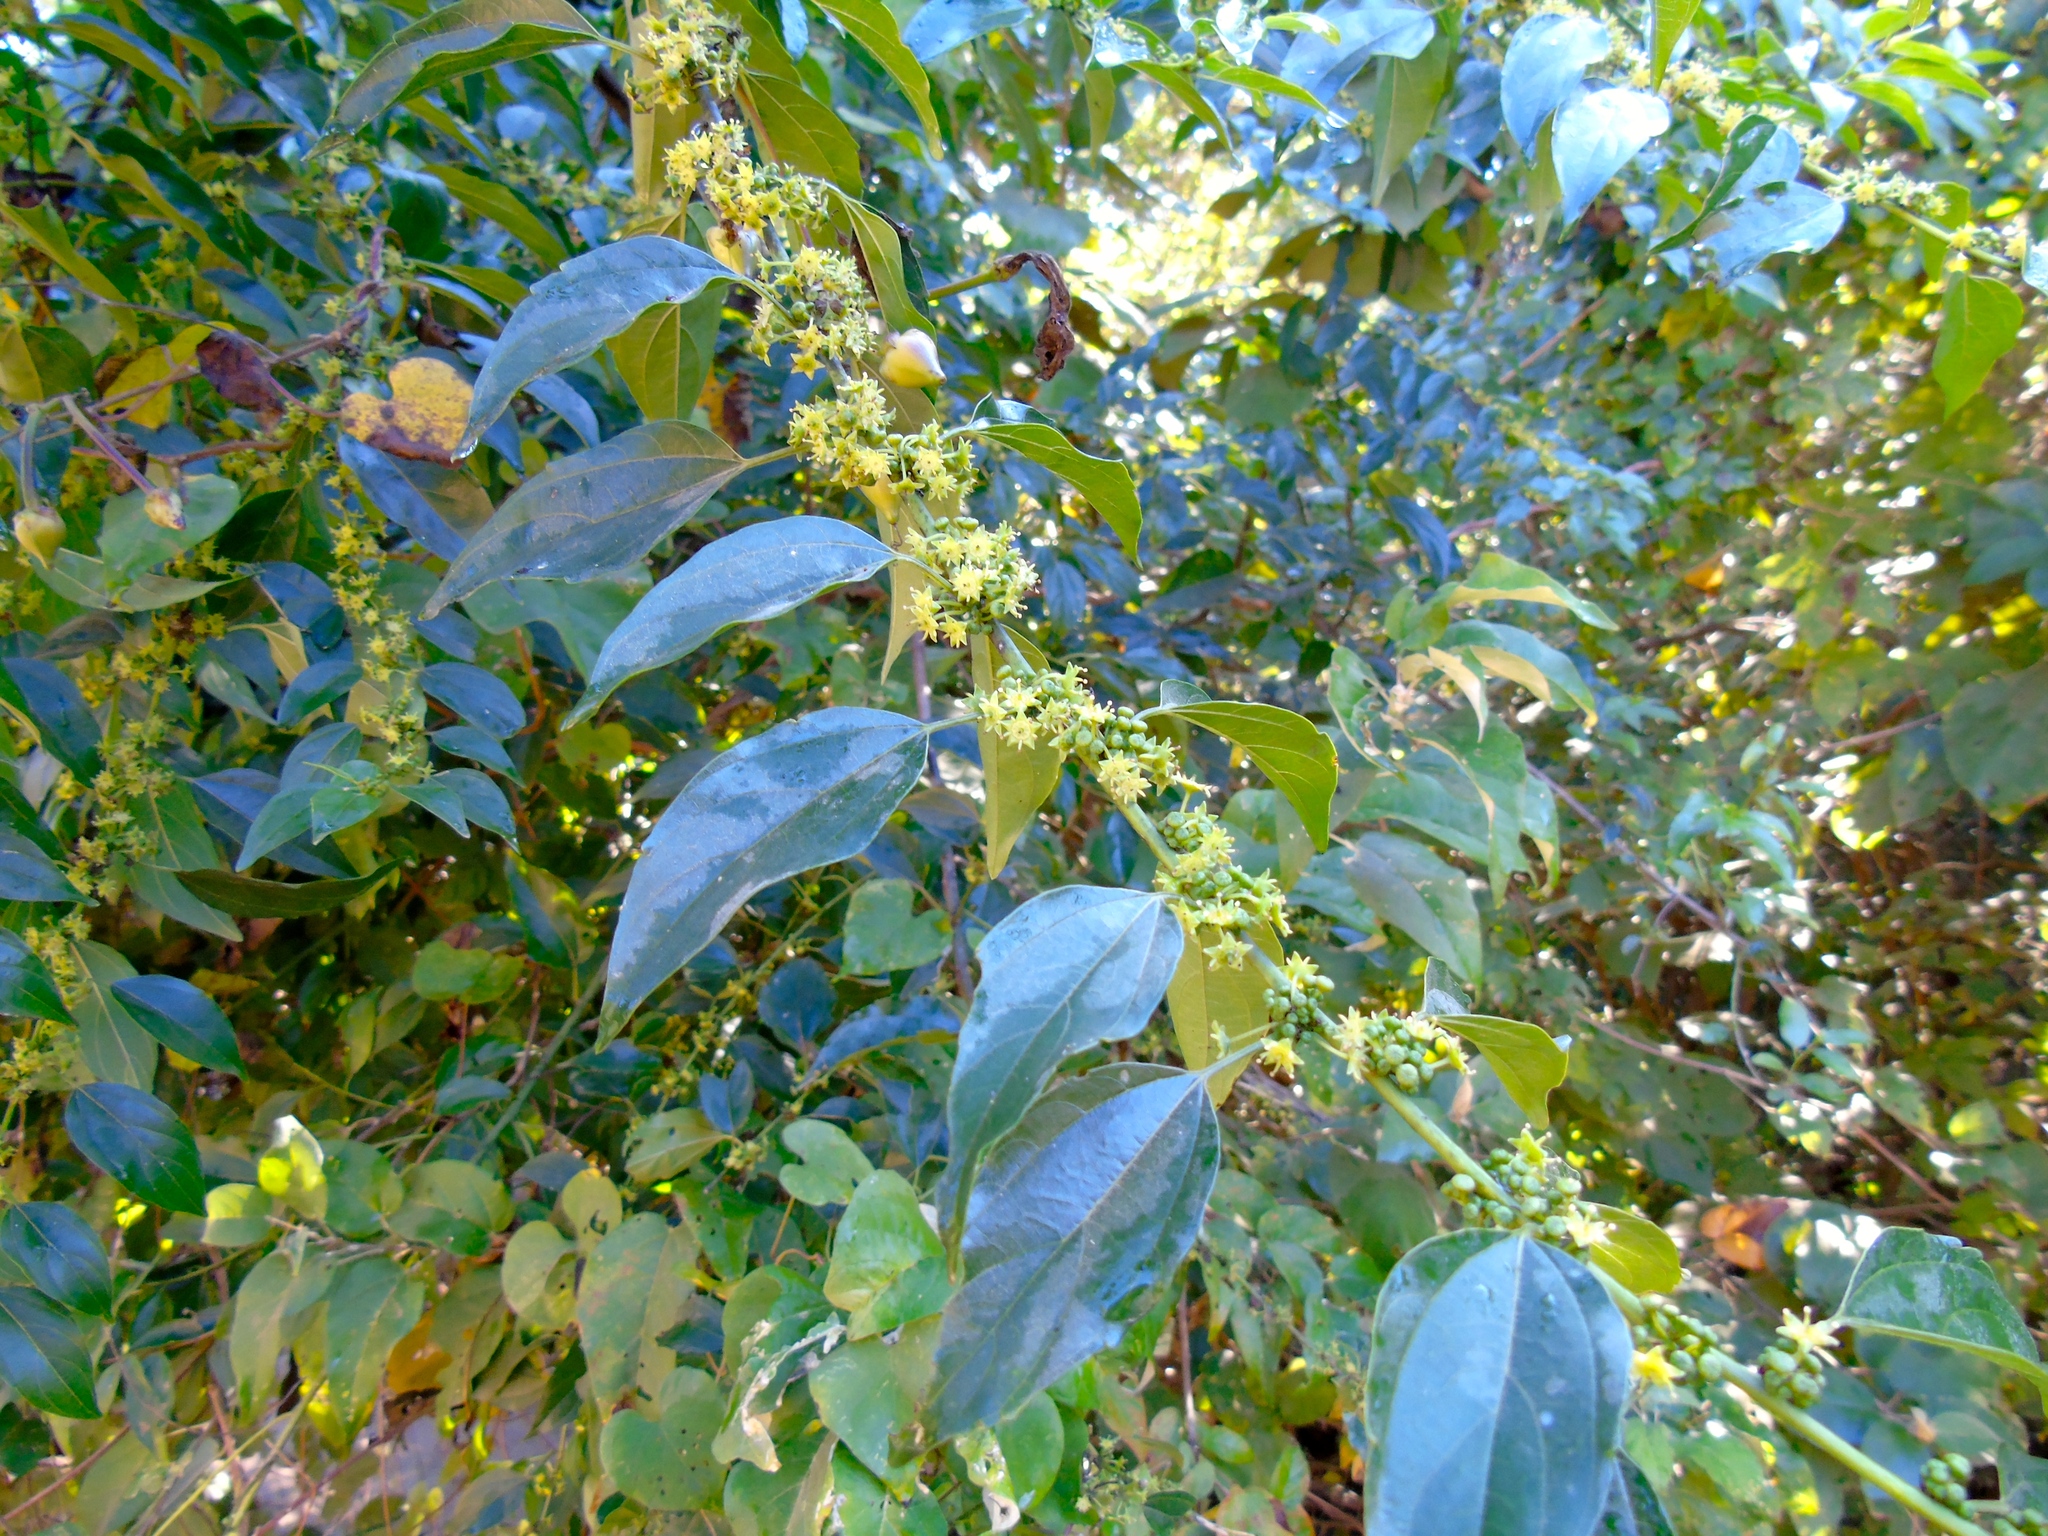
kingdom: Plantae
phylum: Tracheophyta
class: Magnoliopsida
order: Rosales
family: Rhamnaceae
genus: Colubrina
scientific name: Colubrina triflora
